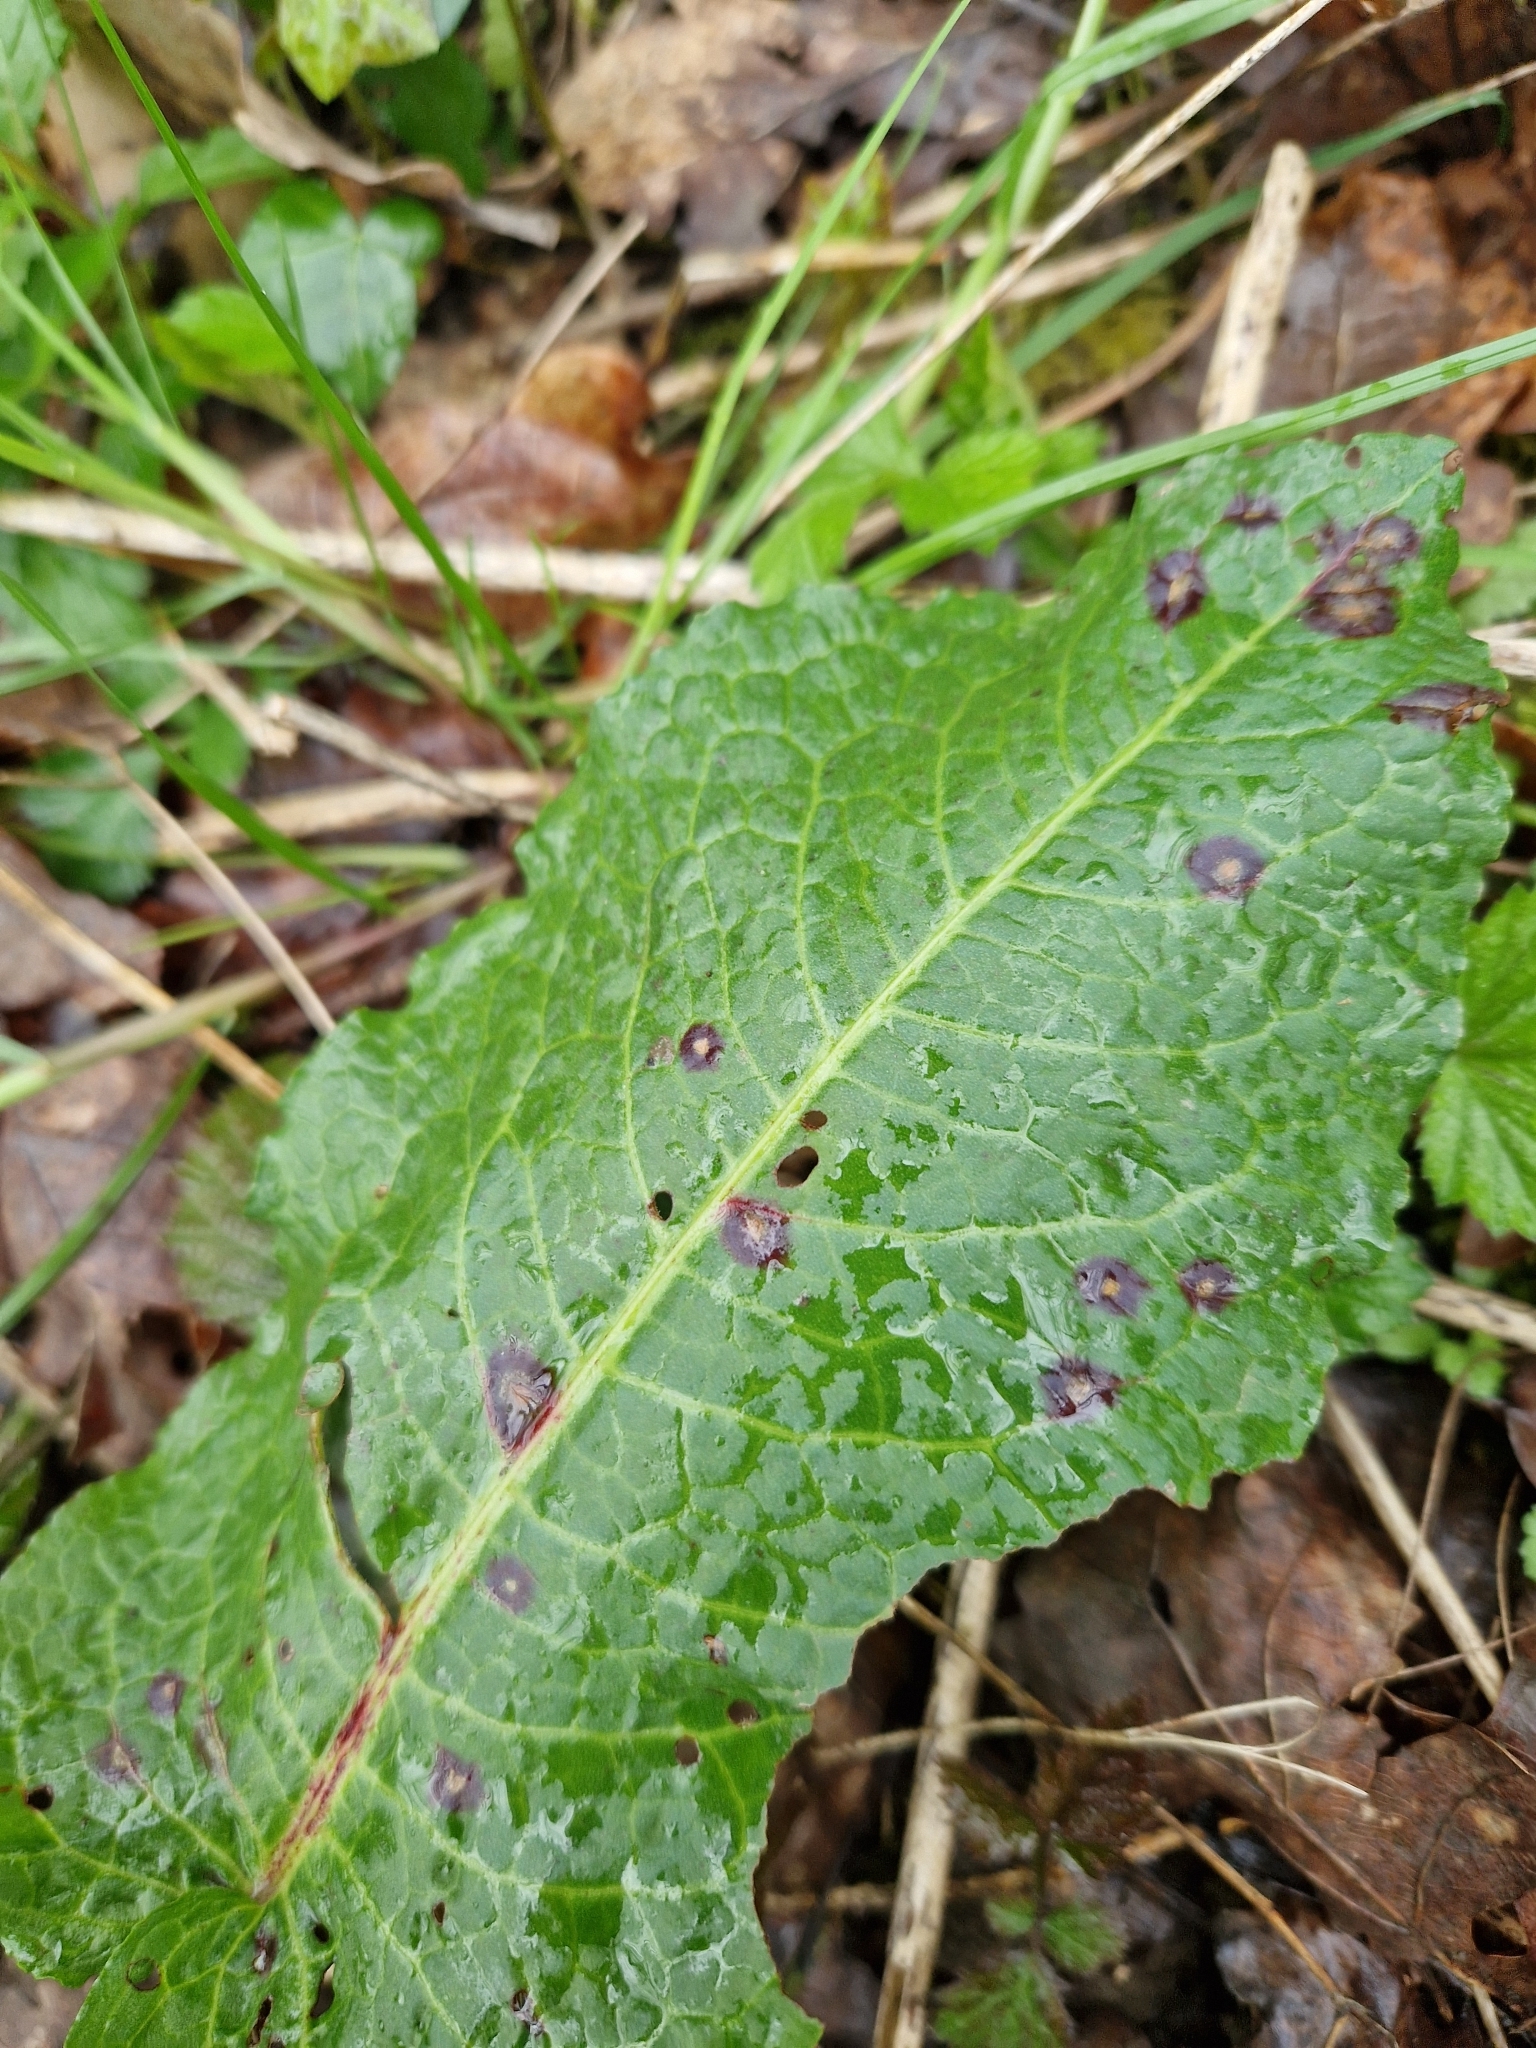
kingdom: Fungi
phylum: Ascomycota
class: Dothideomycetes
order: Mycosphaerellales
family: Mycosphaerellaceae
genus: Ramularia
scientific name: Ramularia rubella
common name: Red dock spot
